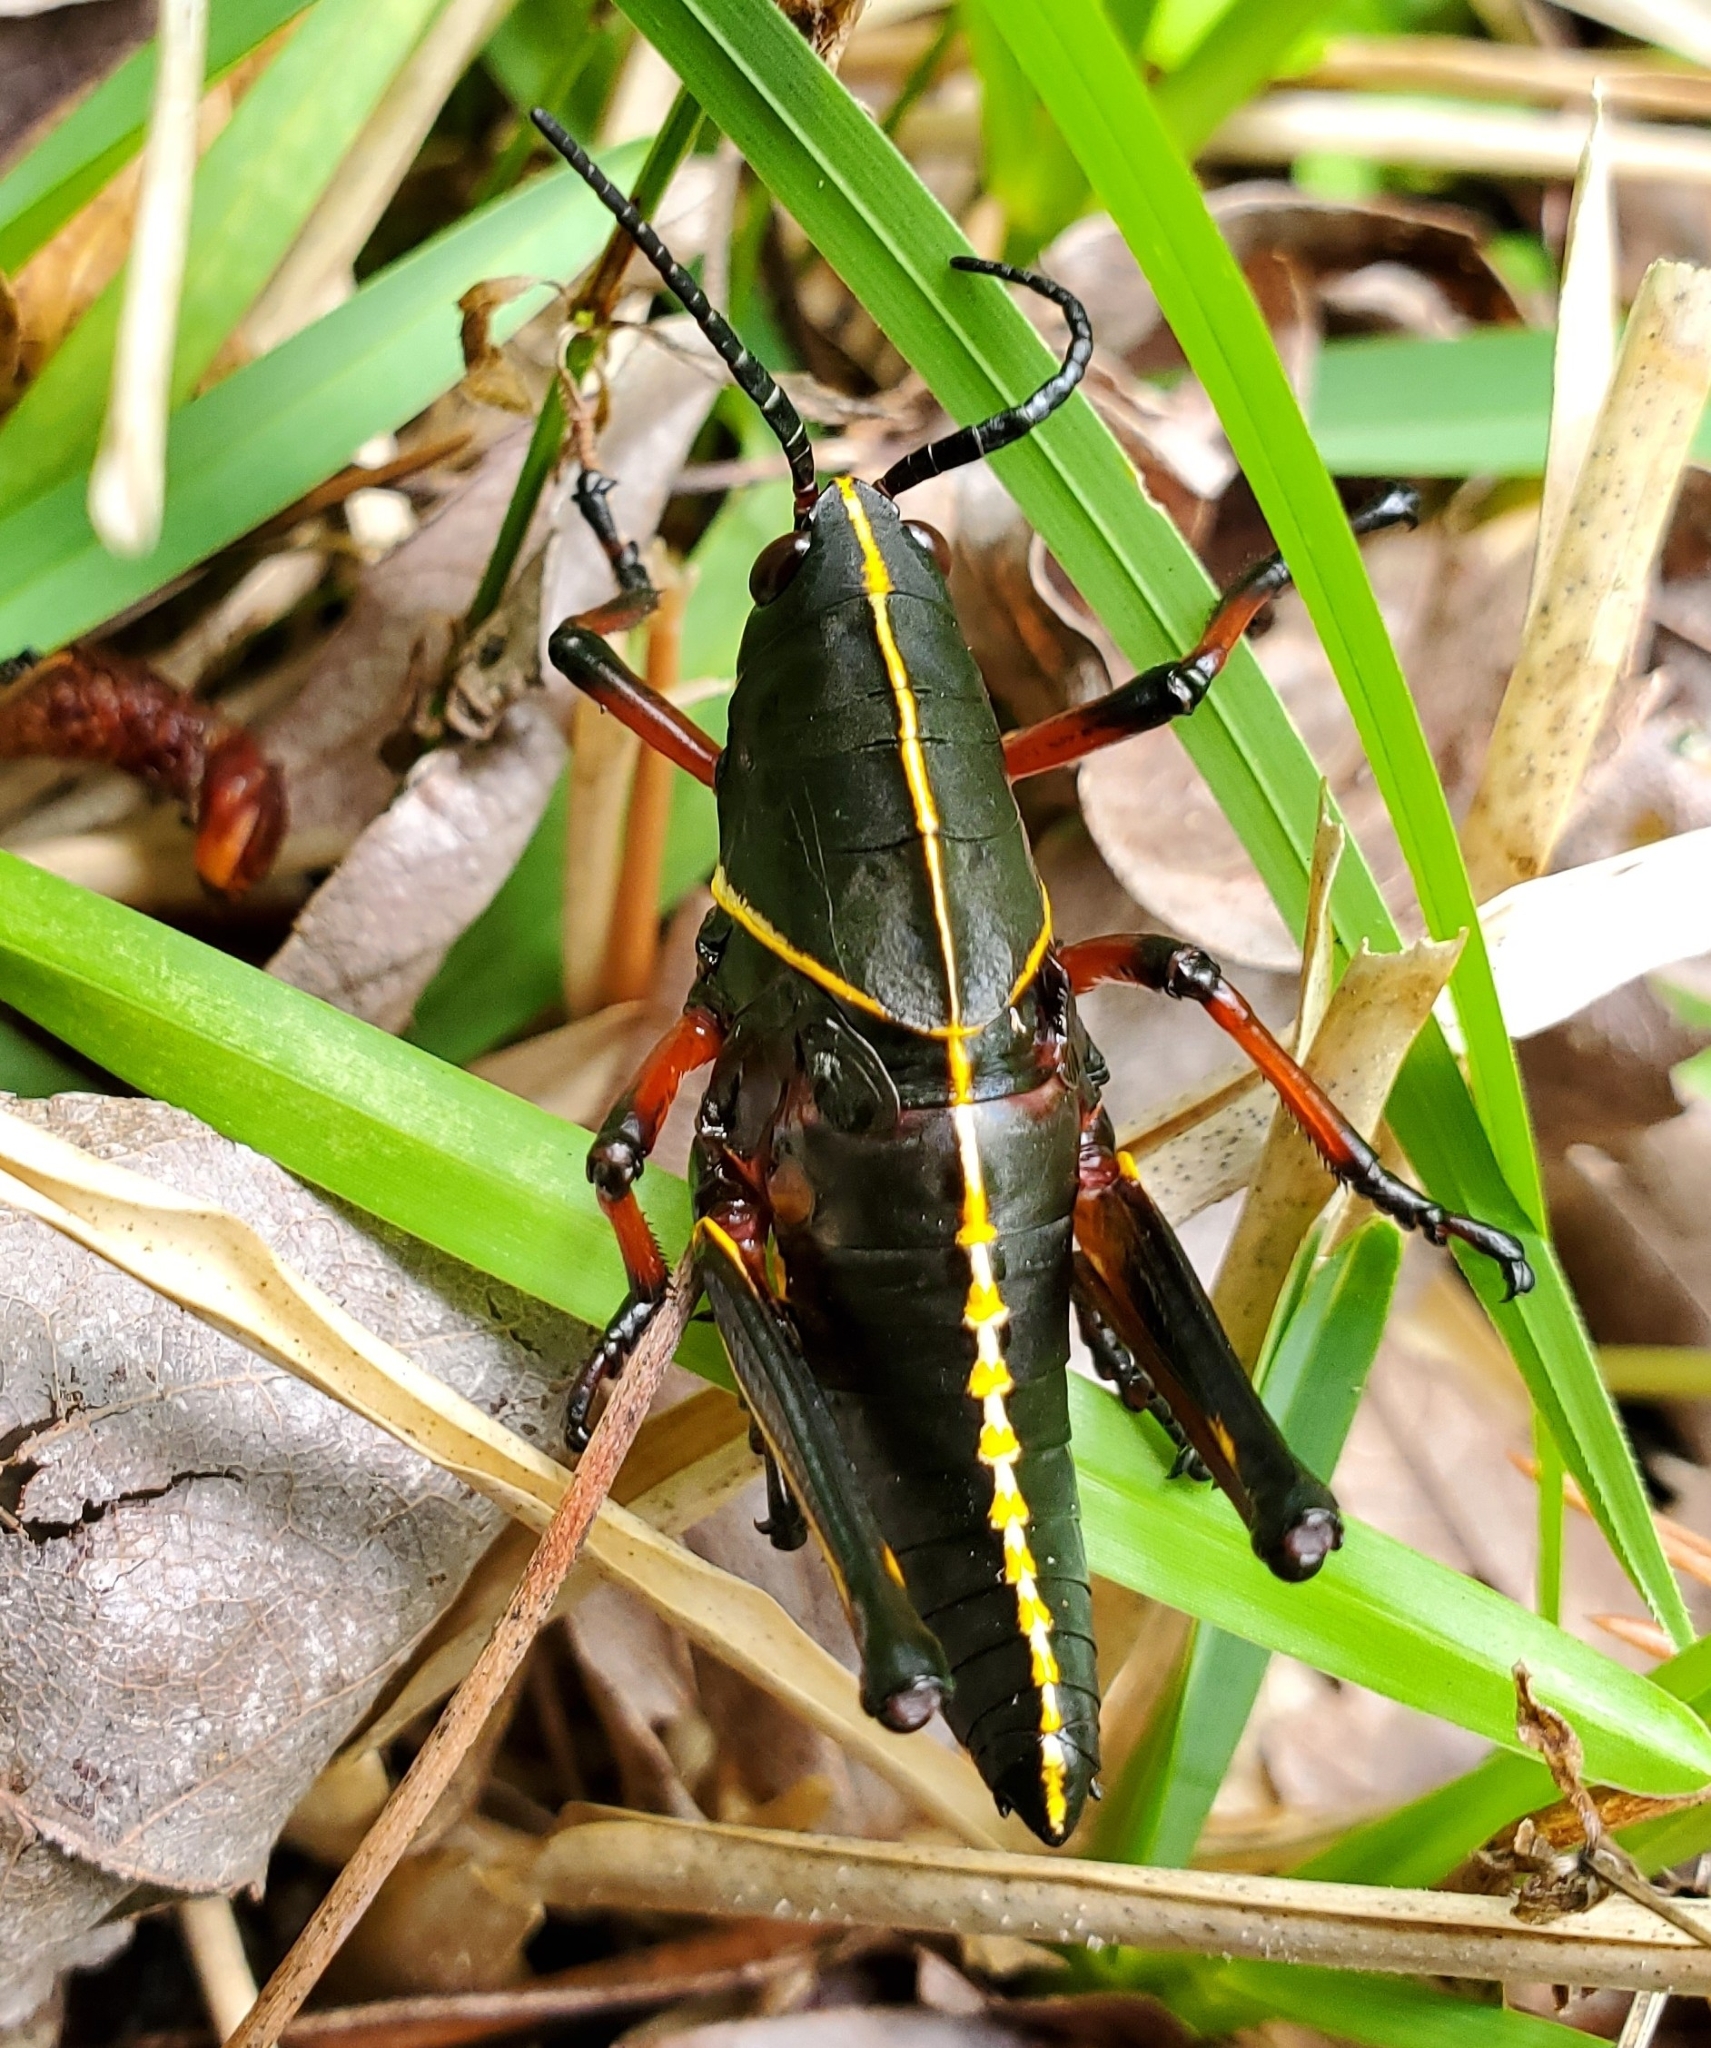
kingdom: Animalia
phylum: Arthropoda
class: Insecta
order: Orthoptera
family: Romaleidae
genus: Romalea
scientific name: Romalea microptera
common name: Eastern lubber grasshopper
